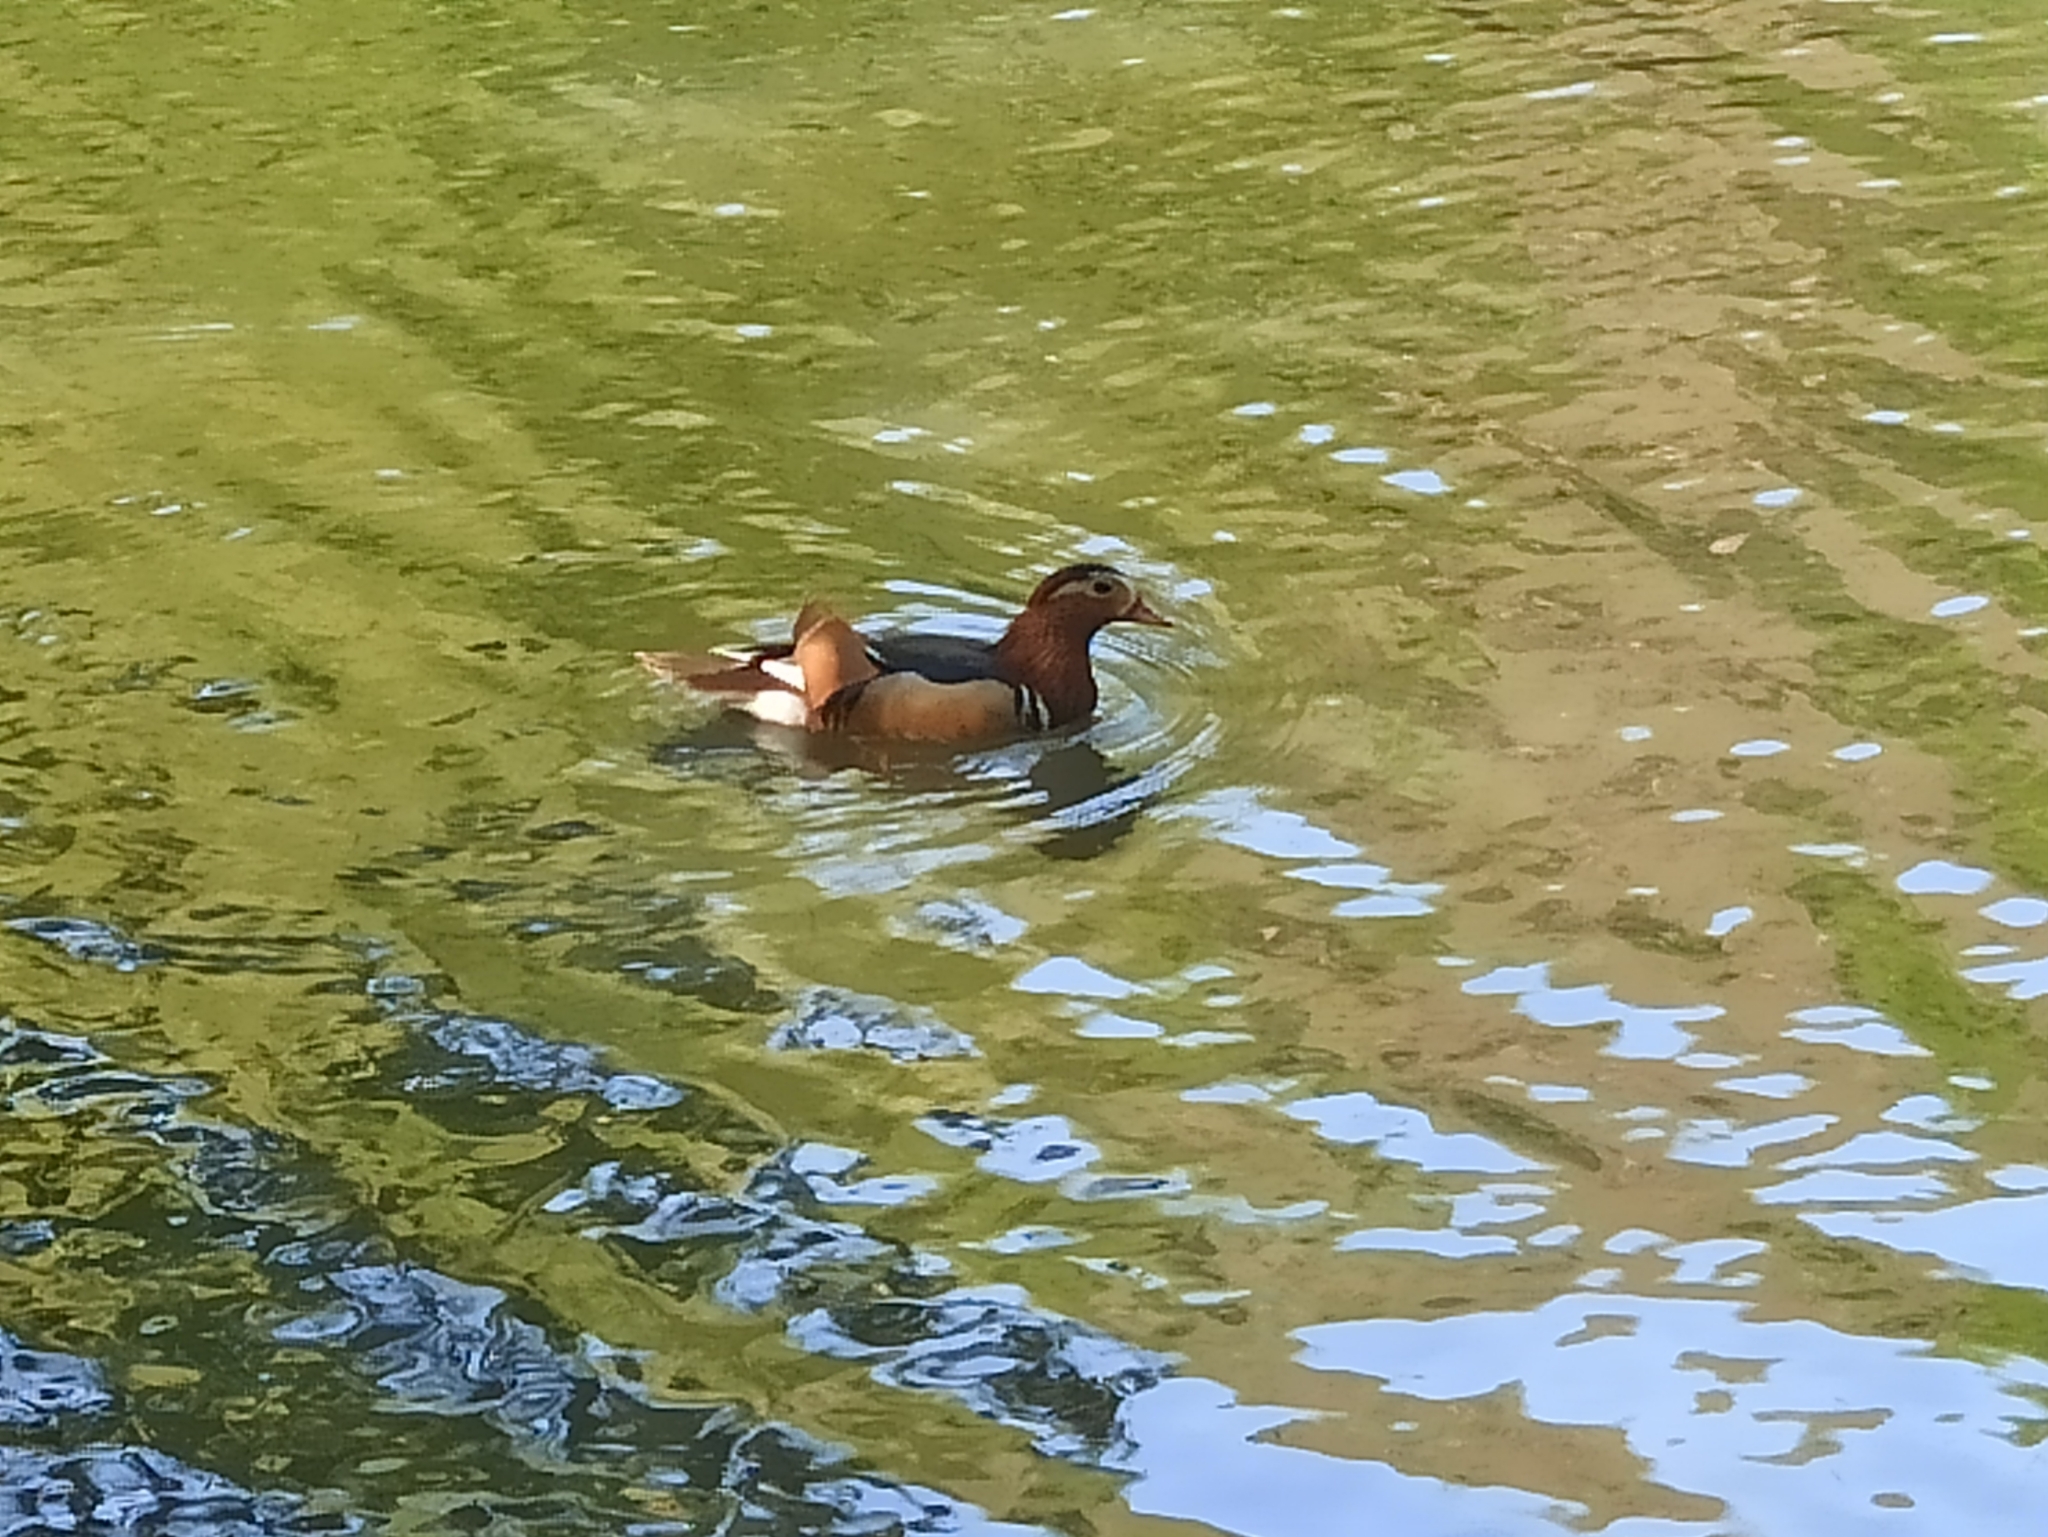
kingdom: Animalia
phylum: Chordata
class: Aves
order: Anseriformes
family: Anatidae
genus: Aix
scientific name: Aix galericulata
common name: Mandarin duck
